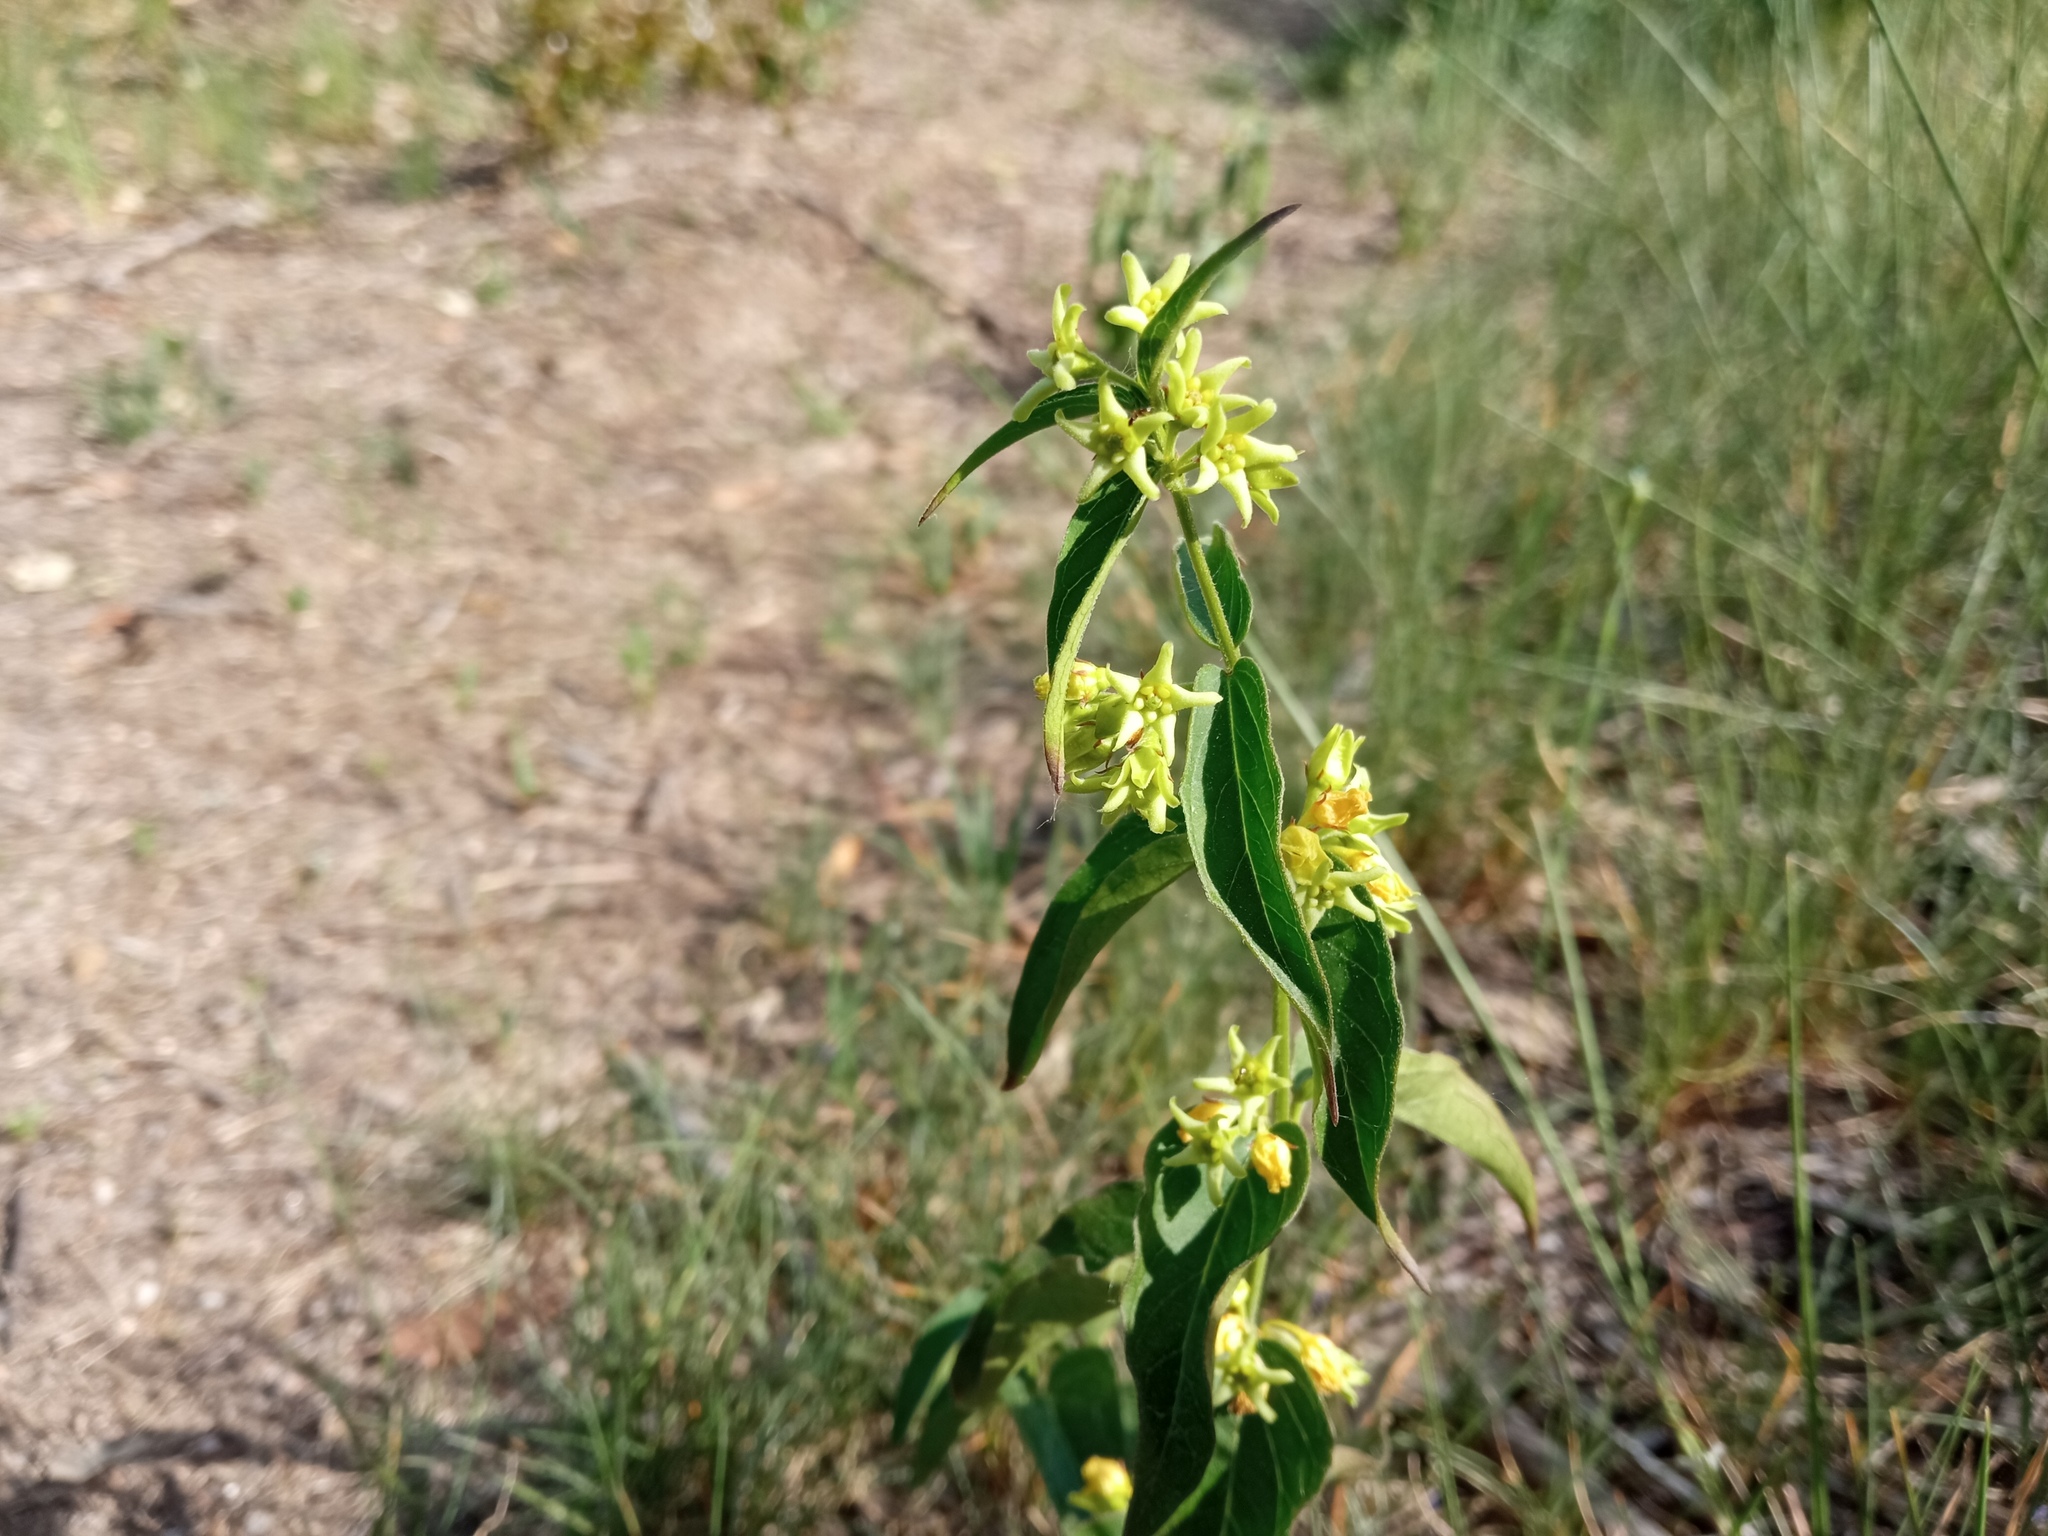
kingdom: Plantae
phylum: Tracheophyta
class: Magnoliopsida
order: Gentianales
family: Apocynaceae
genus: Vincetoxicum
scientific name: Vincetoxicum hirundinaria
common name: White swallowwort
